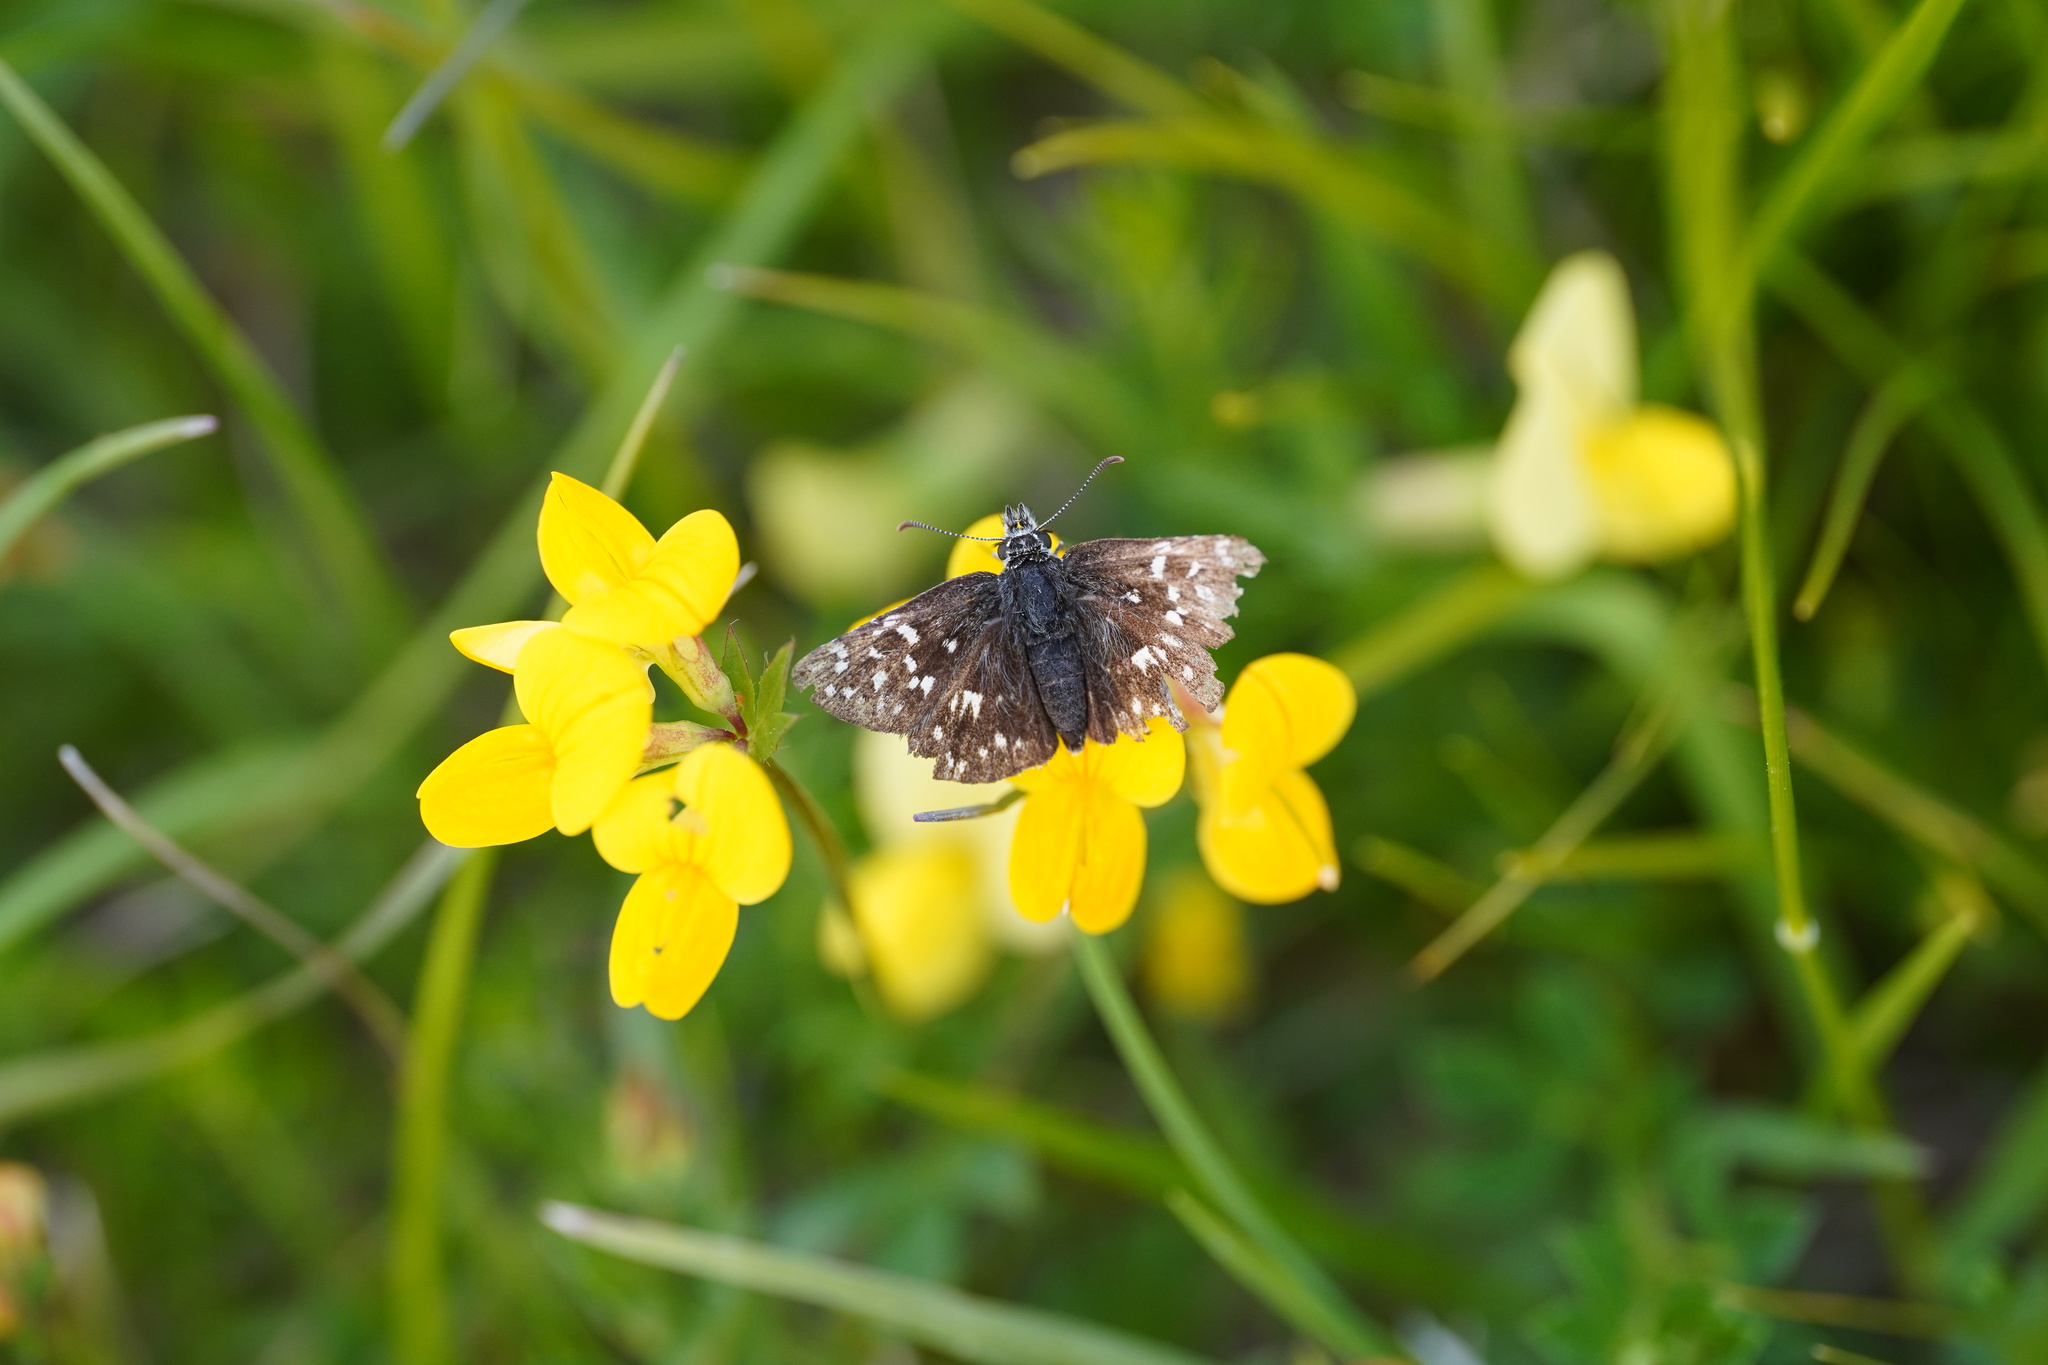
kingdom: Animalia
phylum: Arthropoda
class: Insecta
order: Lepidoptera
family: Hesperiidae
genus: Pyrgus
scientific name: Pyrgus malvae
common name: Grizzled skipper
